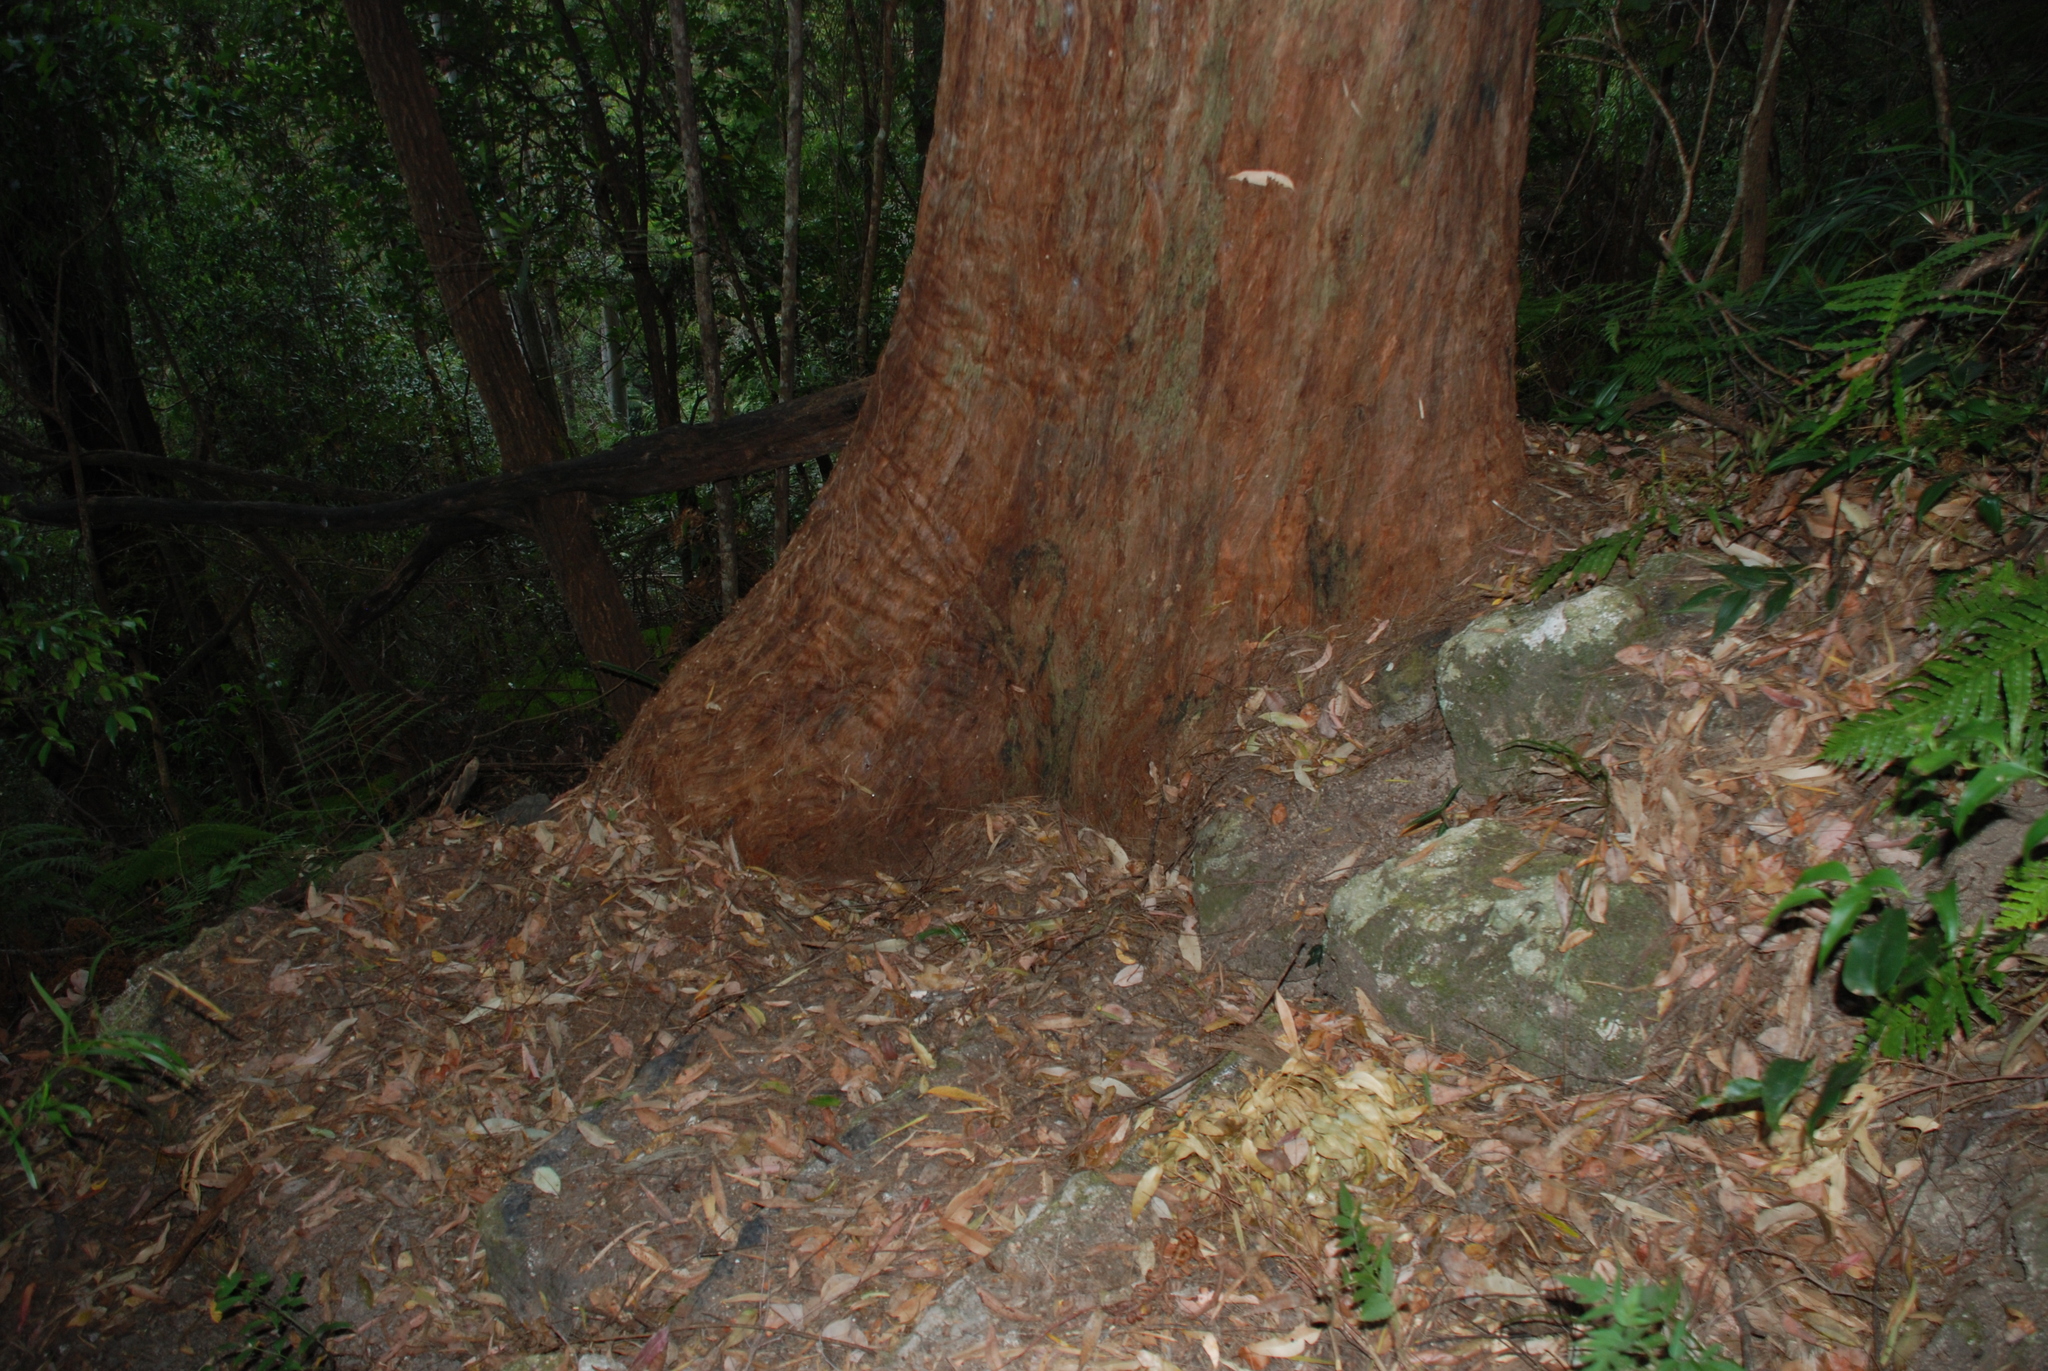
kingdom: Plantae
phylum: Tracheophyta
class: Magnoliopsida
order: Myrtales
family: Myrtaceae
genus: Eucalyptus
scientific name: Eucalyptus microcorys
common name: Tallowwood
